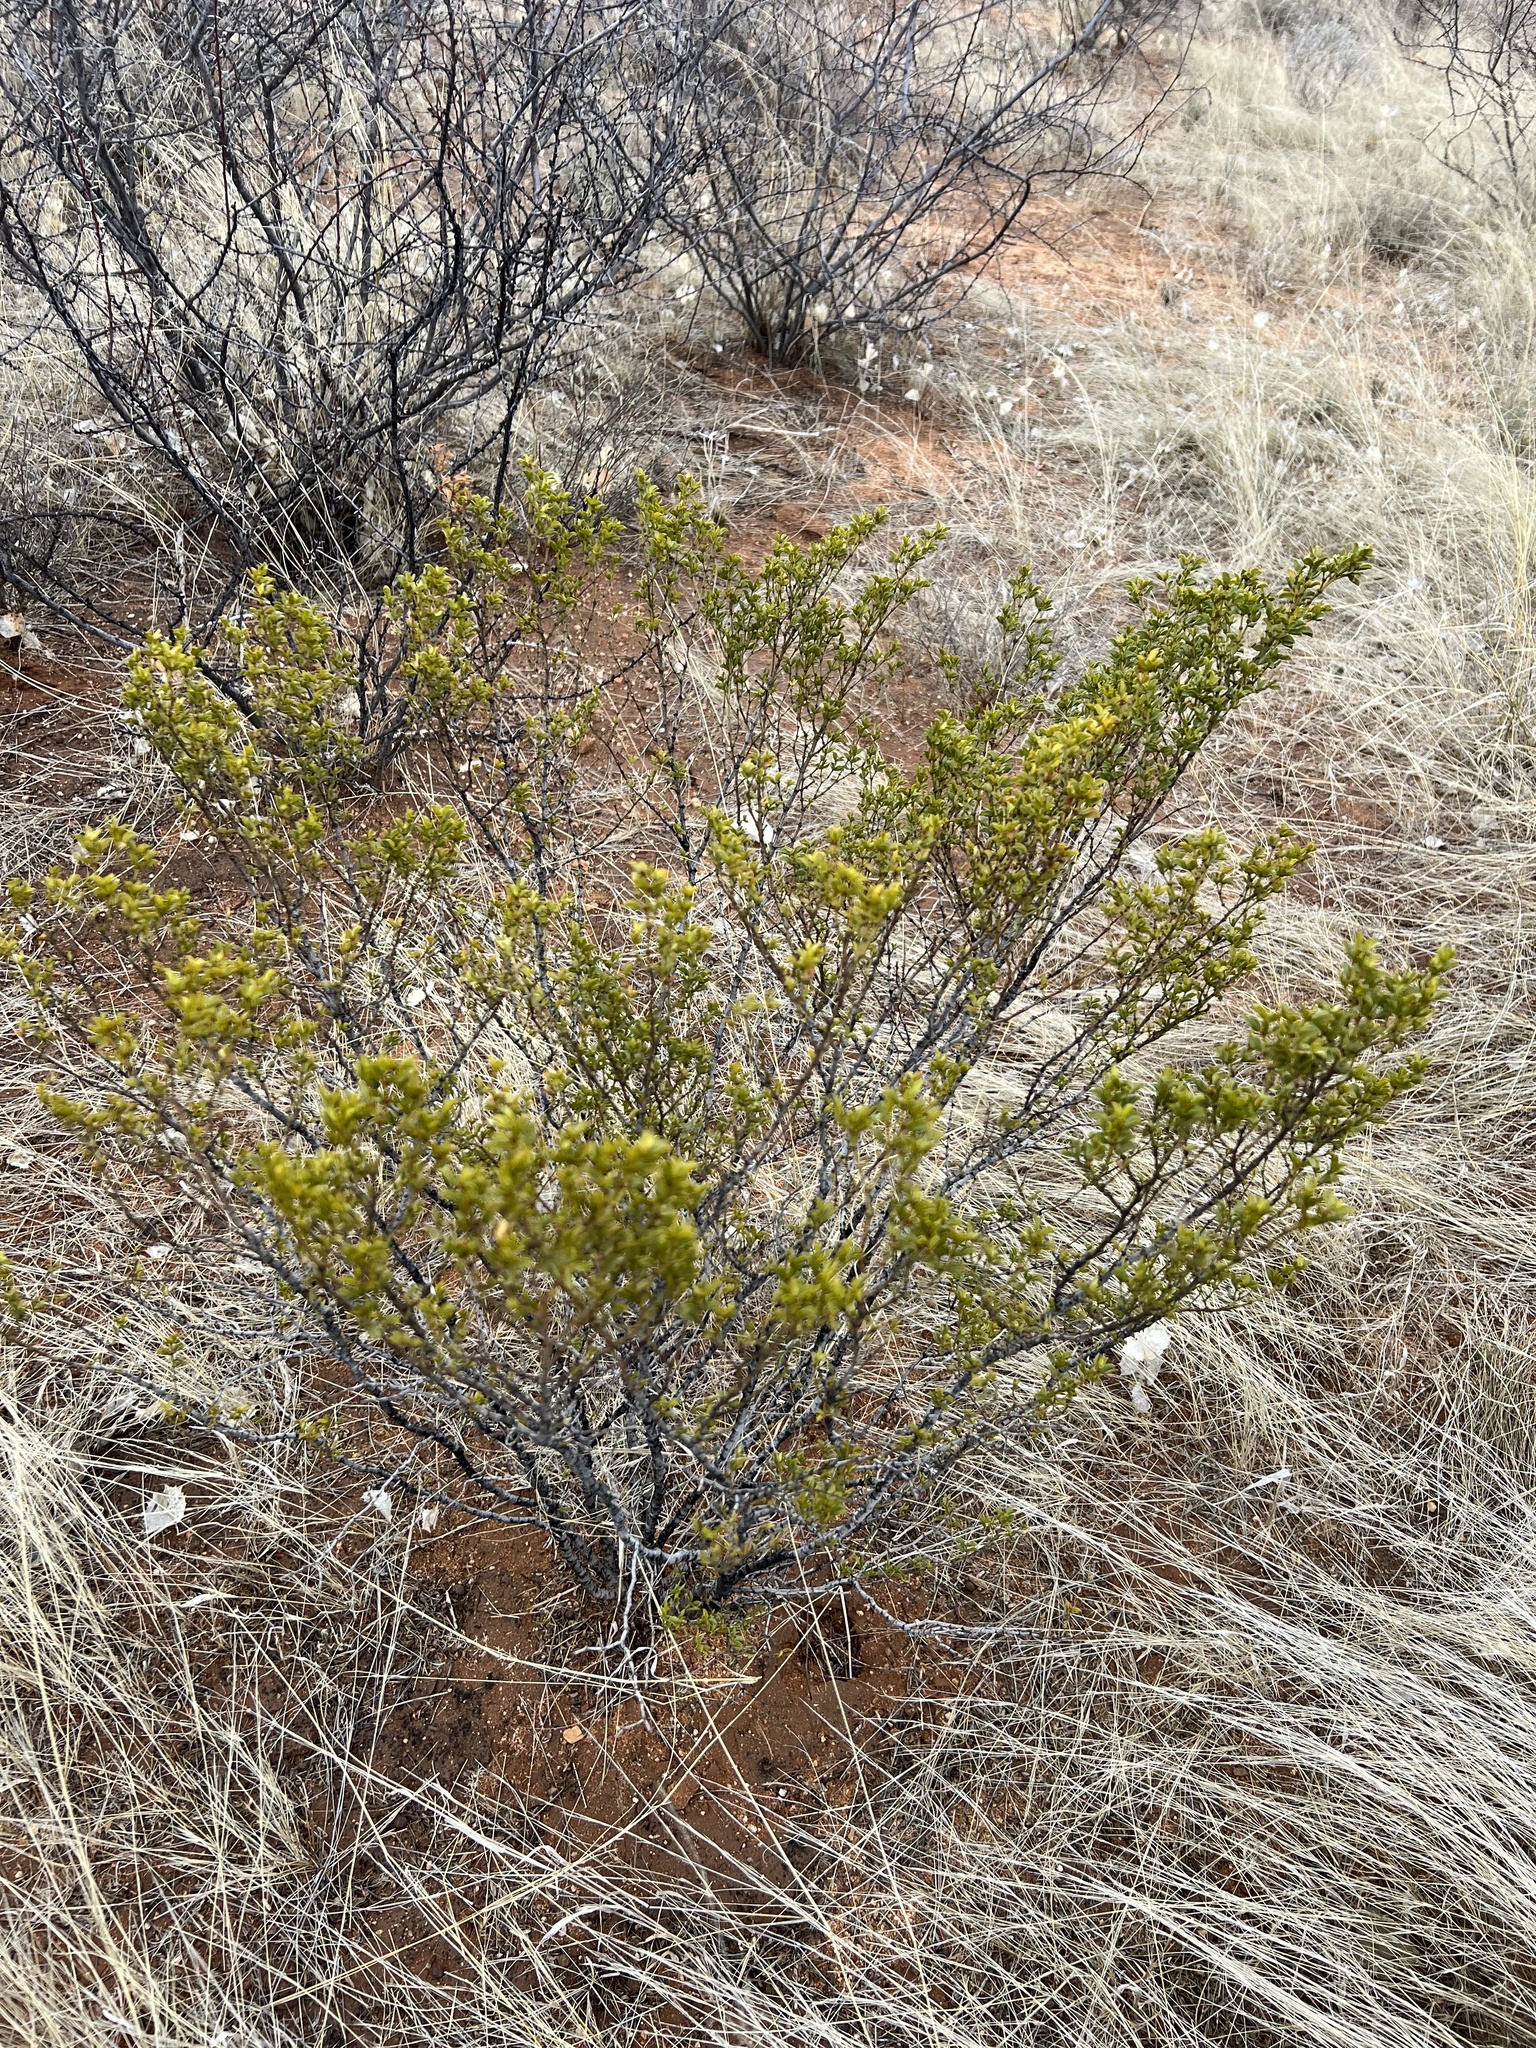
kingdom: Plantae
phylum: Tracheophyta
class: Magnoliopsida
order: Zygophyllales
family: Zygophyllaceae
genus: Larrea
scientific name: Larrea tridentata
